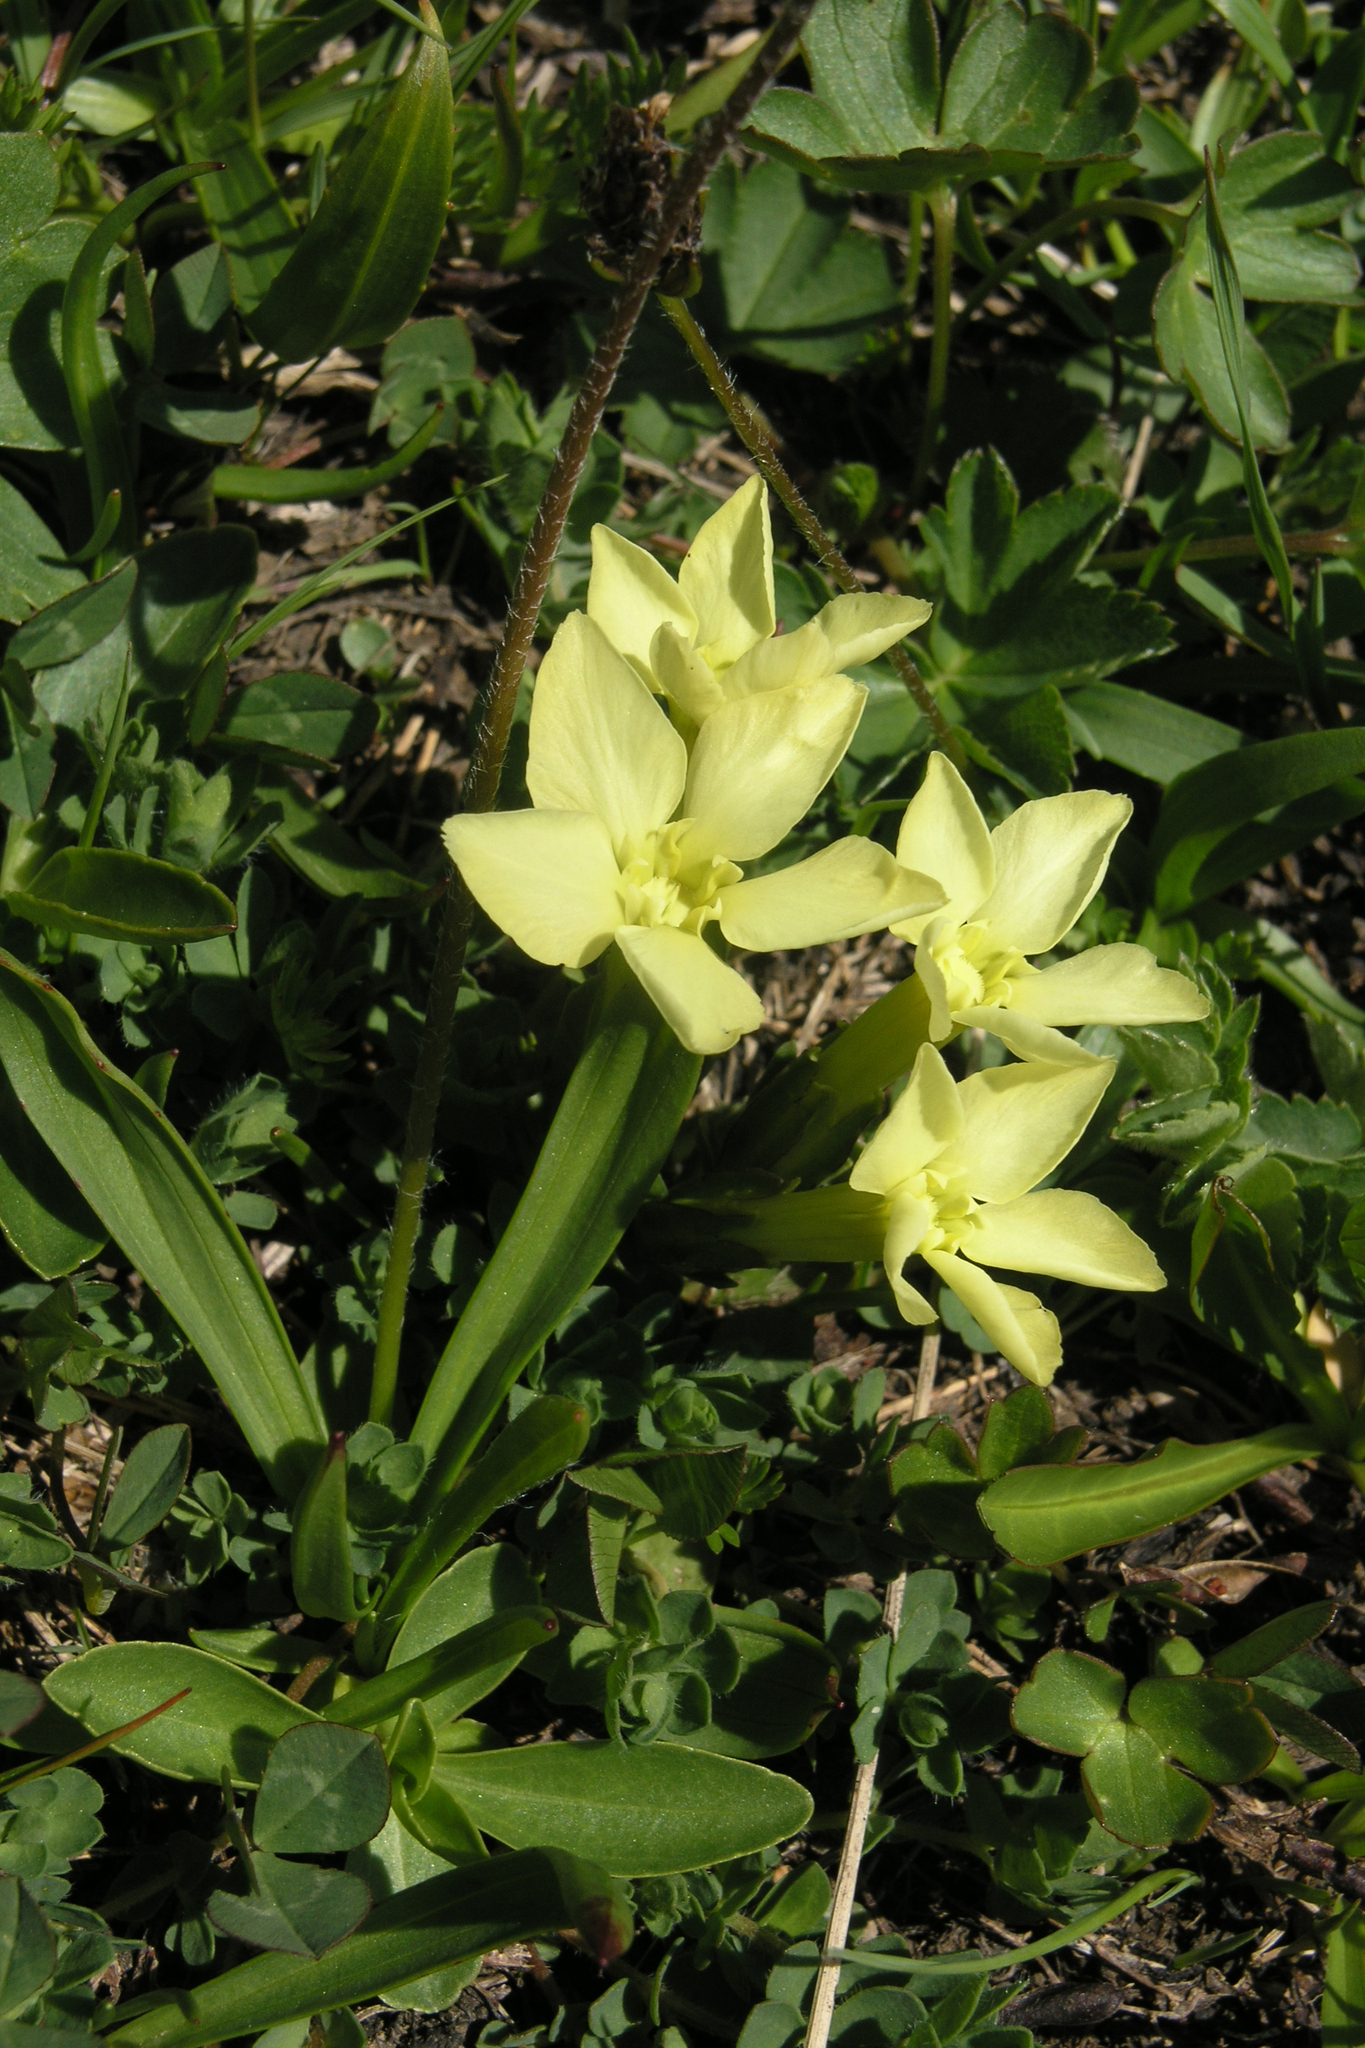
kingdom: Plantae
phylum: Tracheophyta
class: Magnoliopsida
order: Gentianales
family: Gentianaceae
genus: Gentiana
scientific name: Gentiana verna
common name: Spring gentian
